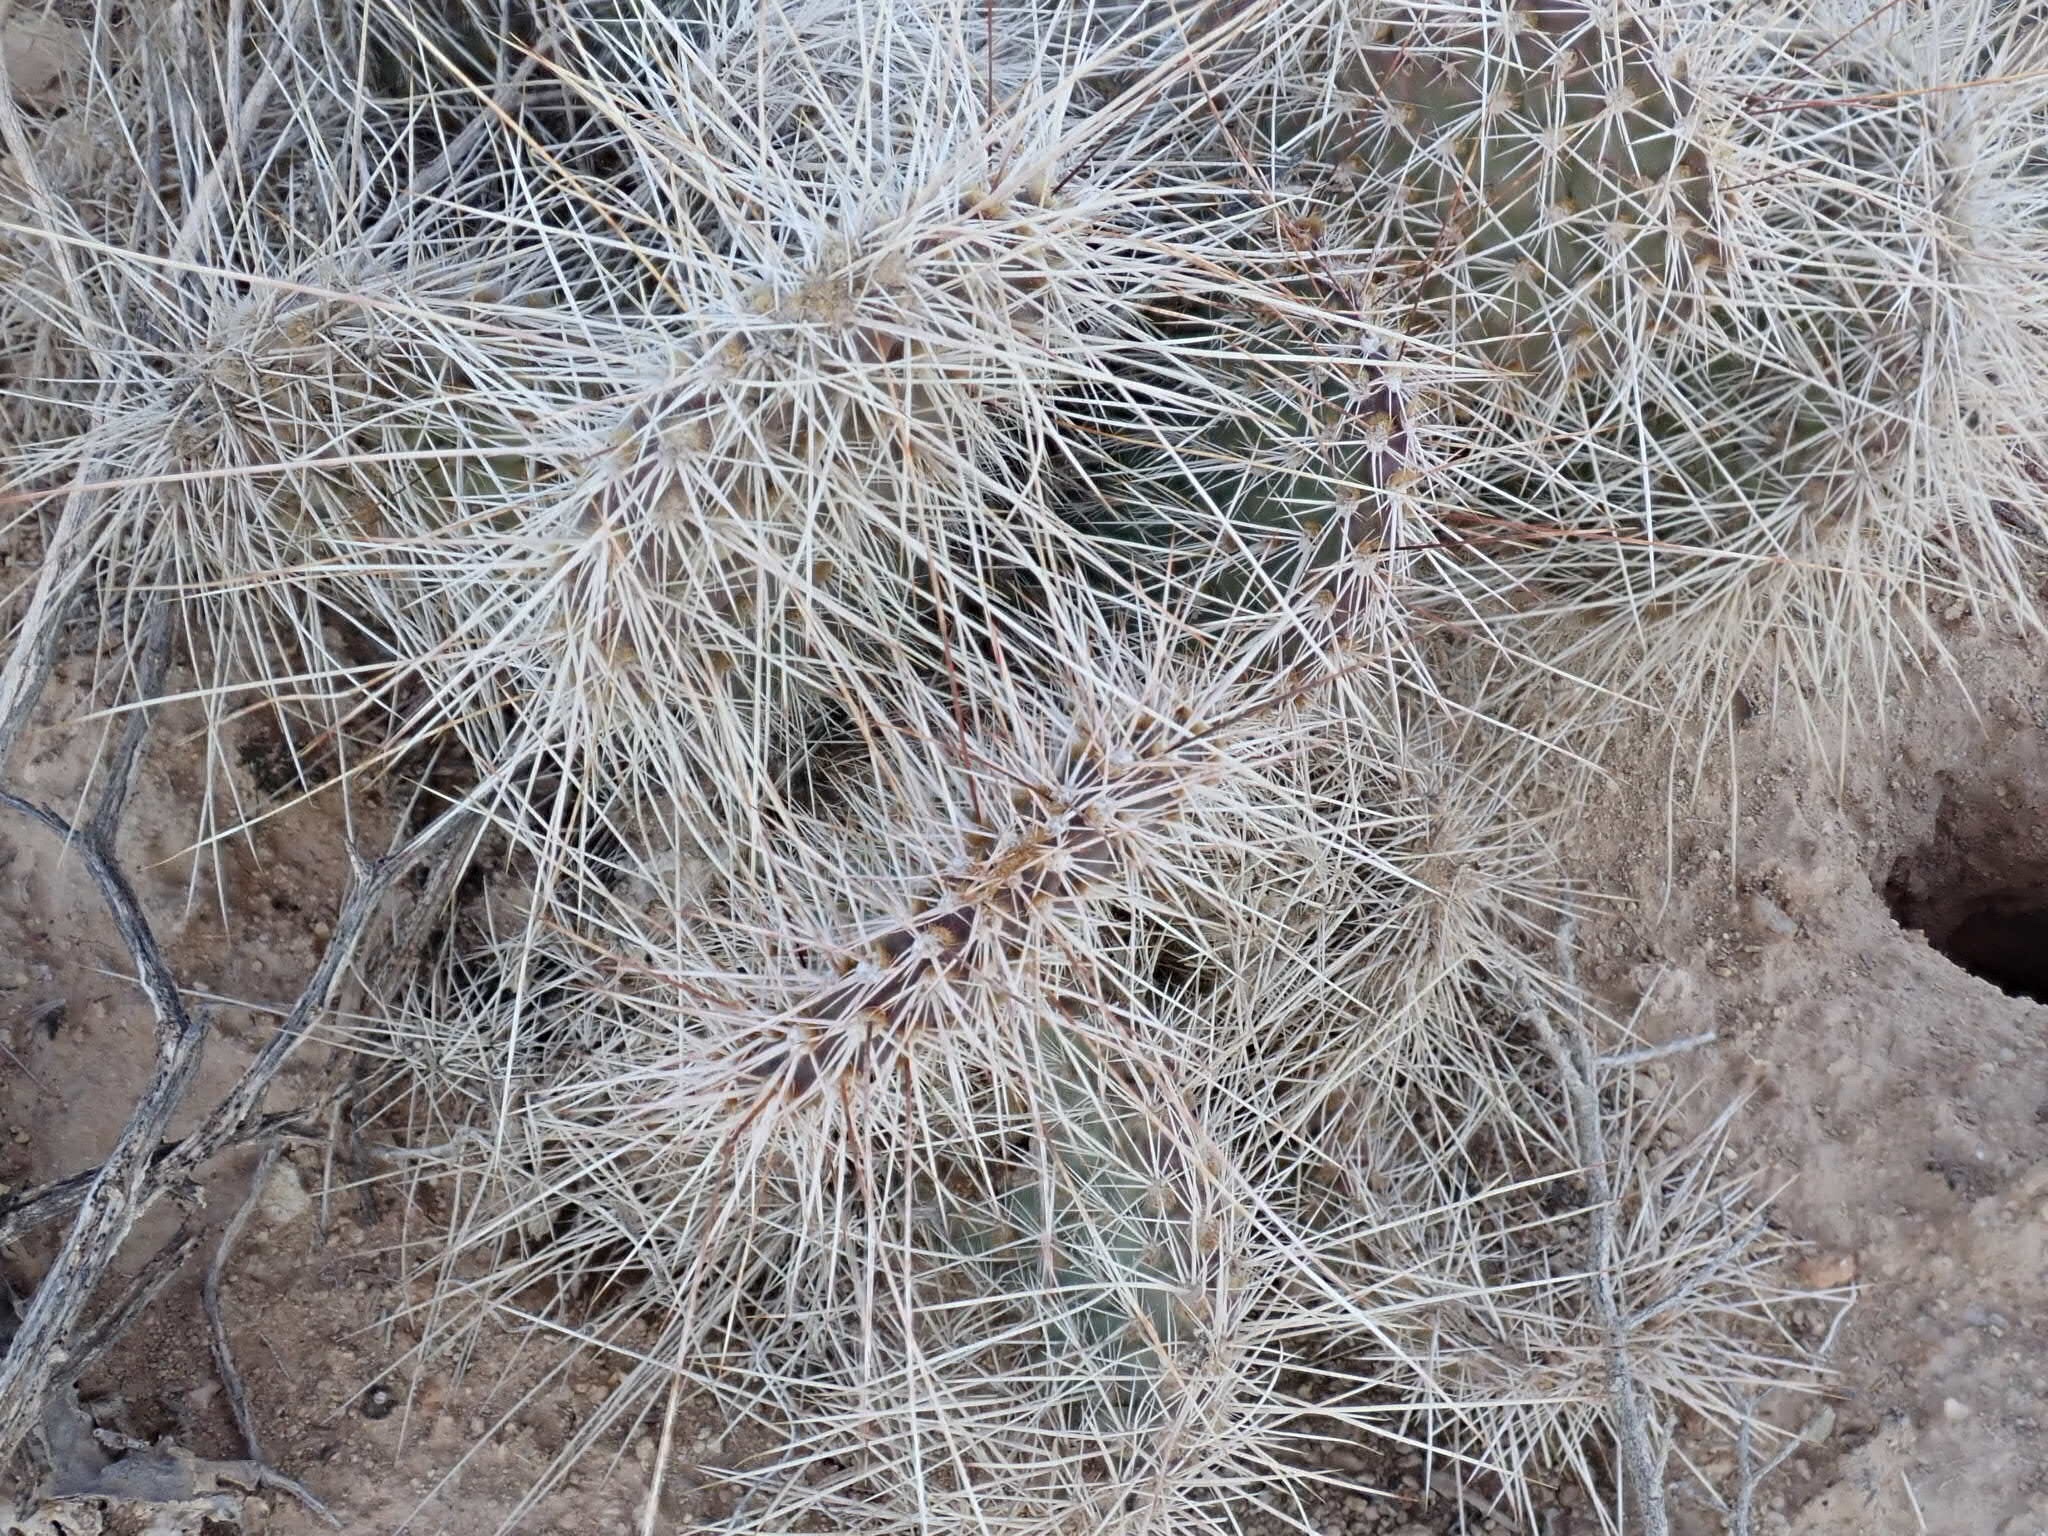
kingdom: Plantae
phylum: Tracheophyta
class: Magnoliopsida
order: Caryophyllales
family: Cactaceae
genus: Opuntia
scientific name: Opuntia polyacantha
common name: Plains prickly-pear
